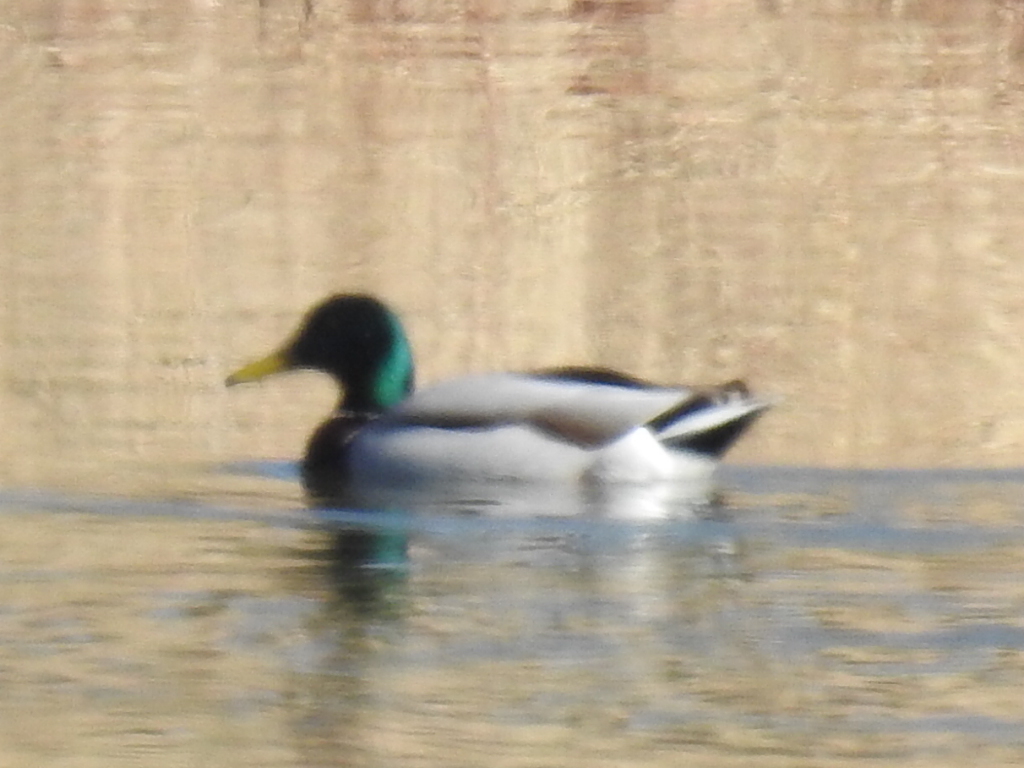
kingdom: Animalia
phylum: Chordata
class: Aves
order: Anseriformes
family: Anatidae
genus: Anas
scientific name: Anas platyrhynchos
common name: Mallard
